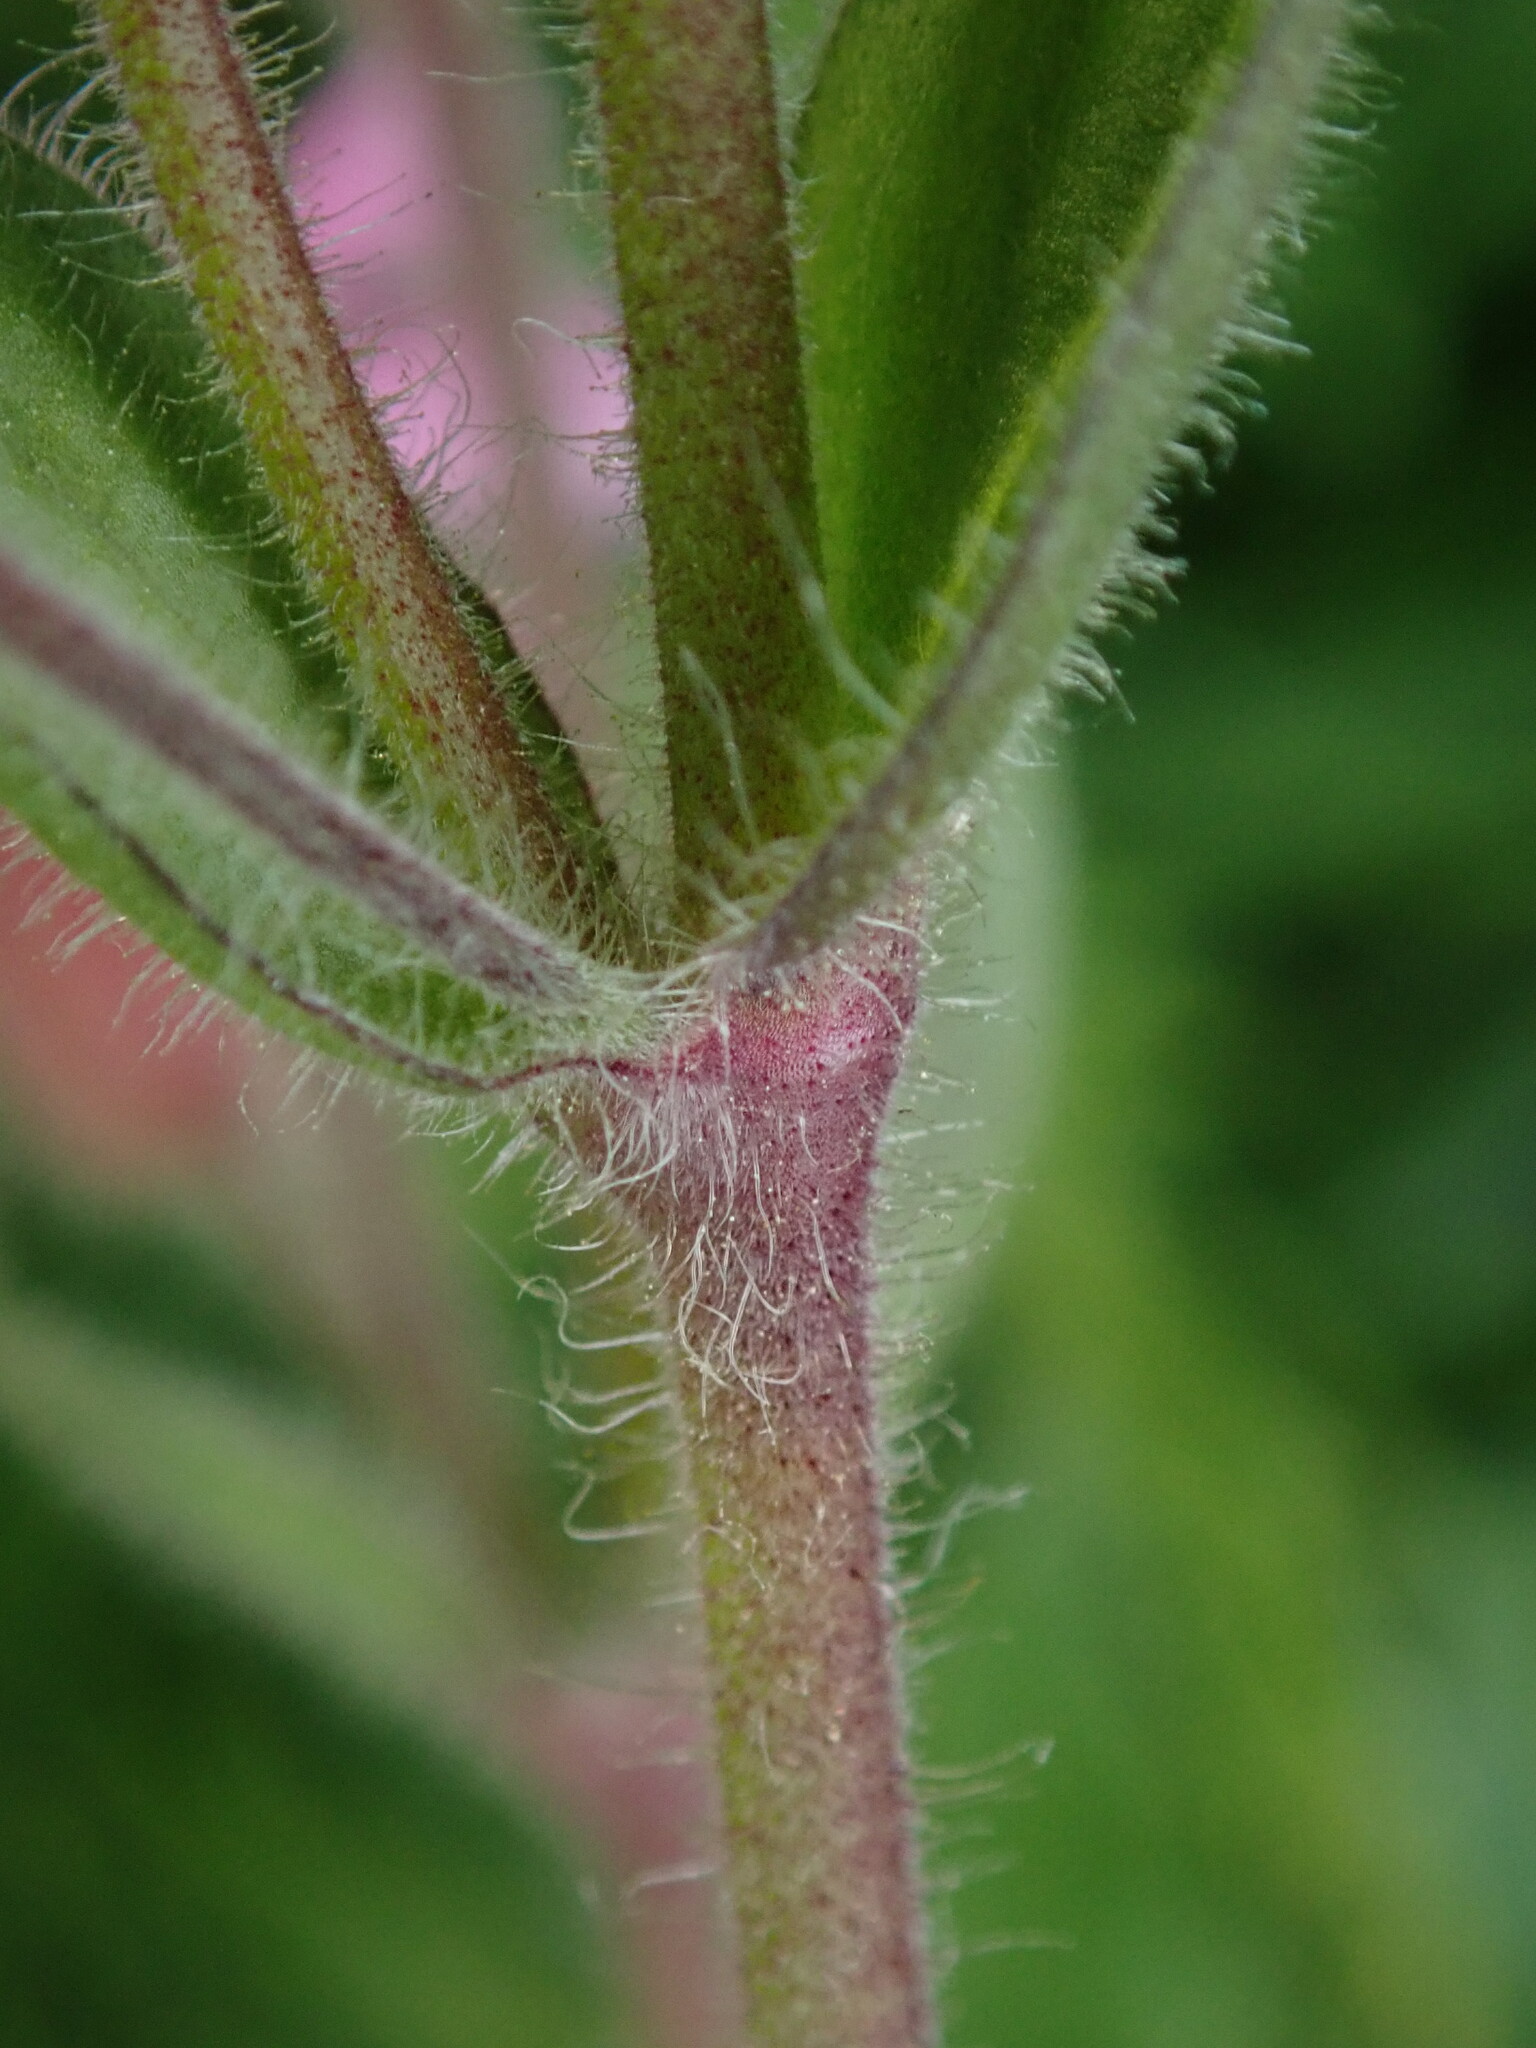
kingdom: Plantae
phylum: Tracheophyta
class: Magnoliopsida
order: Caryophyllales
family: Caryophyllaceae
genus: Silene
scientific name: Silene dioica
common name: Red campion
